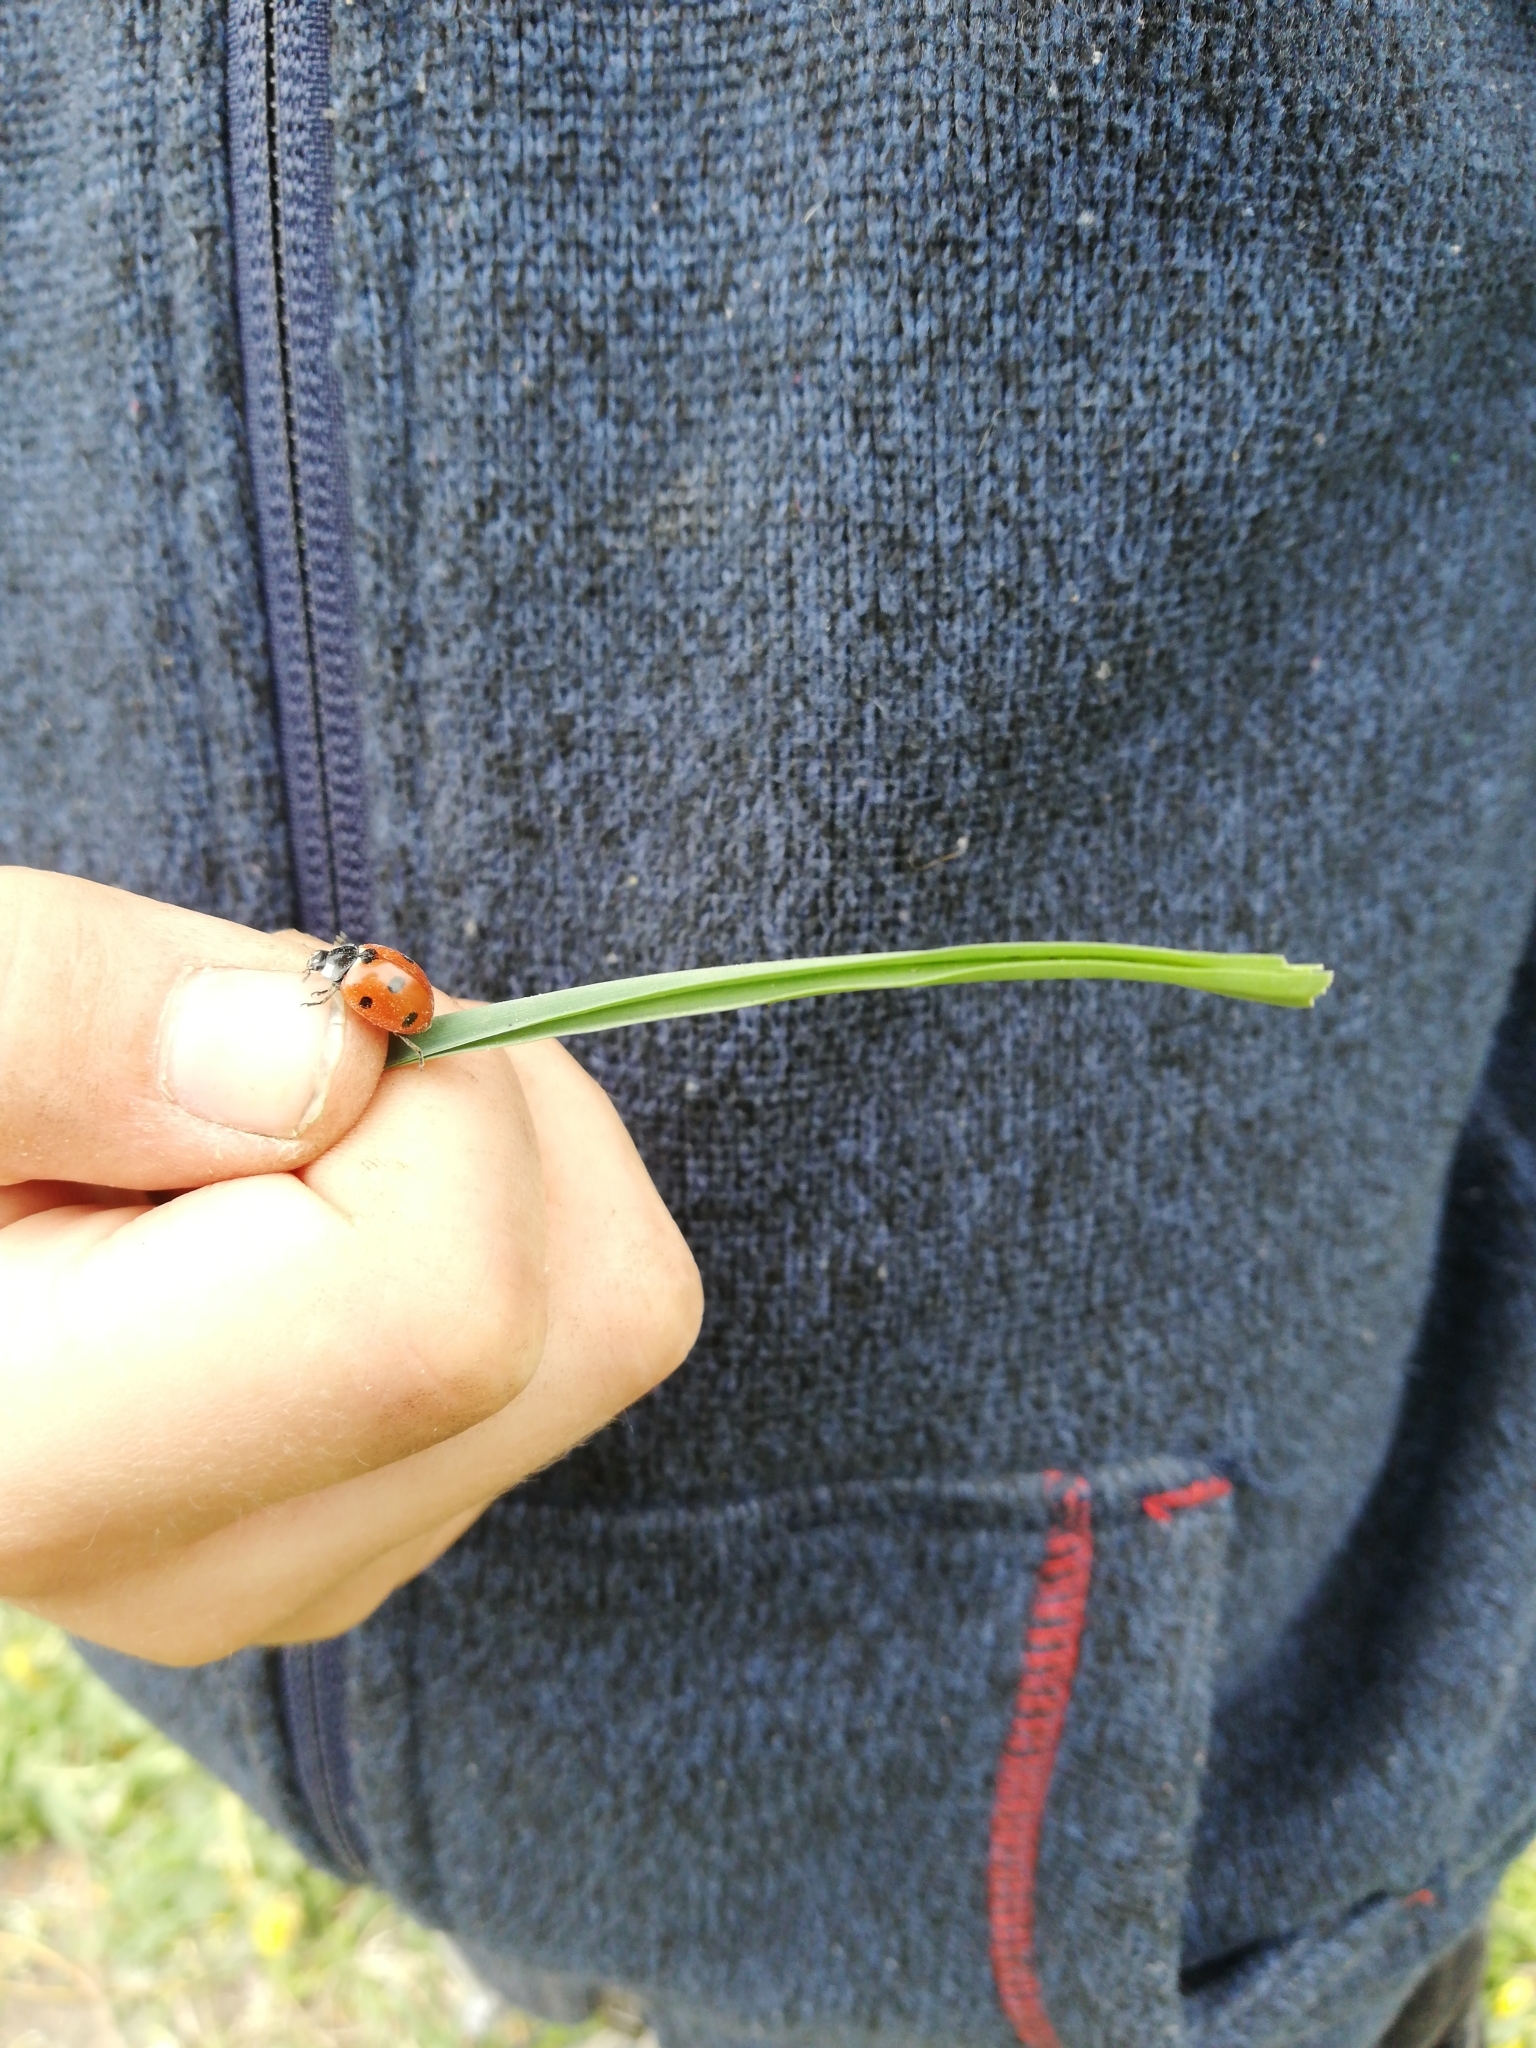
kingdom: Animalia
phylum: Arthropoda
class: Insecta
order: Coleoptera
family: Coccinellidae
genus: Coccinella
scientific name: Coccinella septempunctata
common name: Sevenspotted lady beetle
